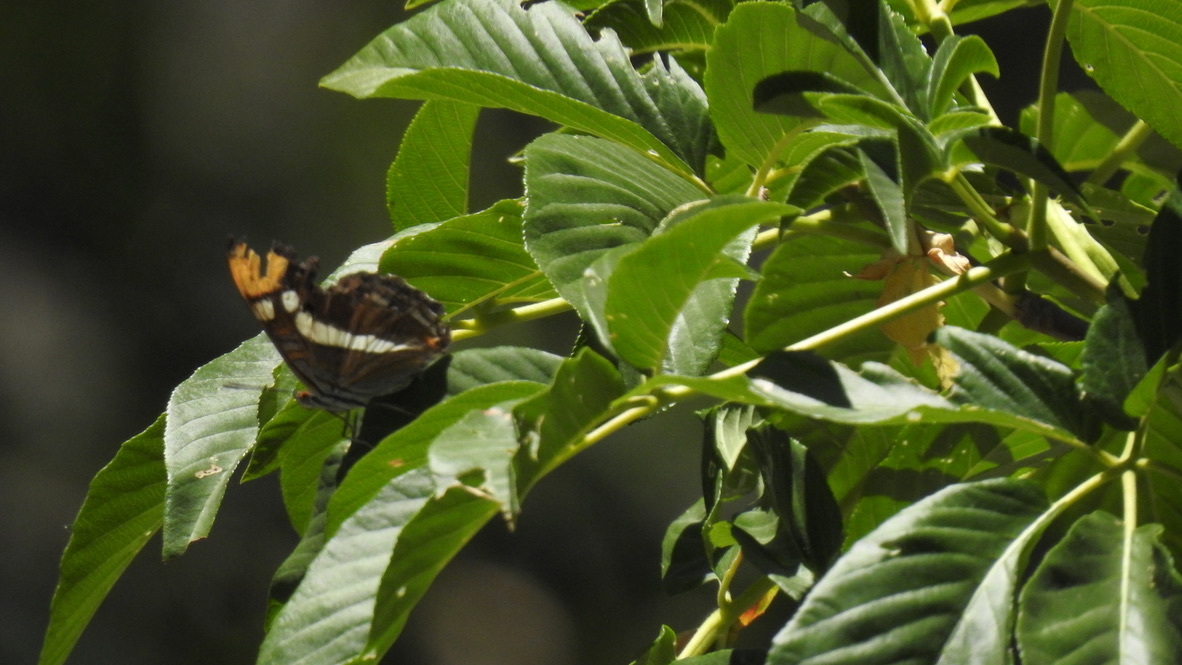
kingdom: Animalia
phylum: Arthropoda
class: Insecta
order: Lepidoptera
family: Nymphalidae
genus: Limenitis
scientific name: Limenitis bredowii
